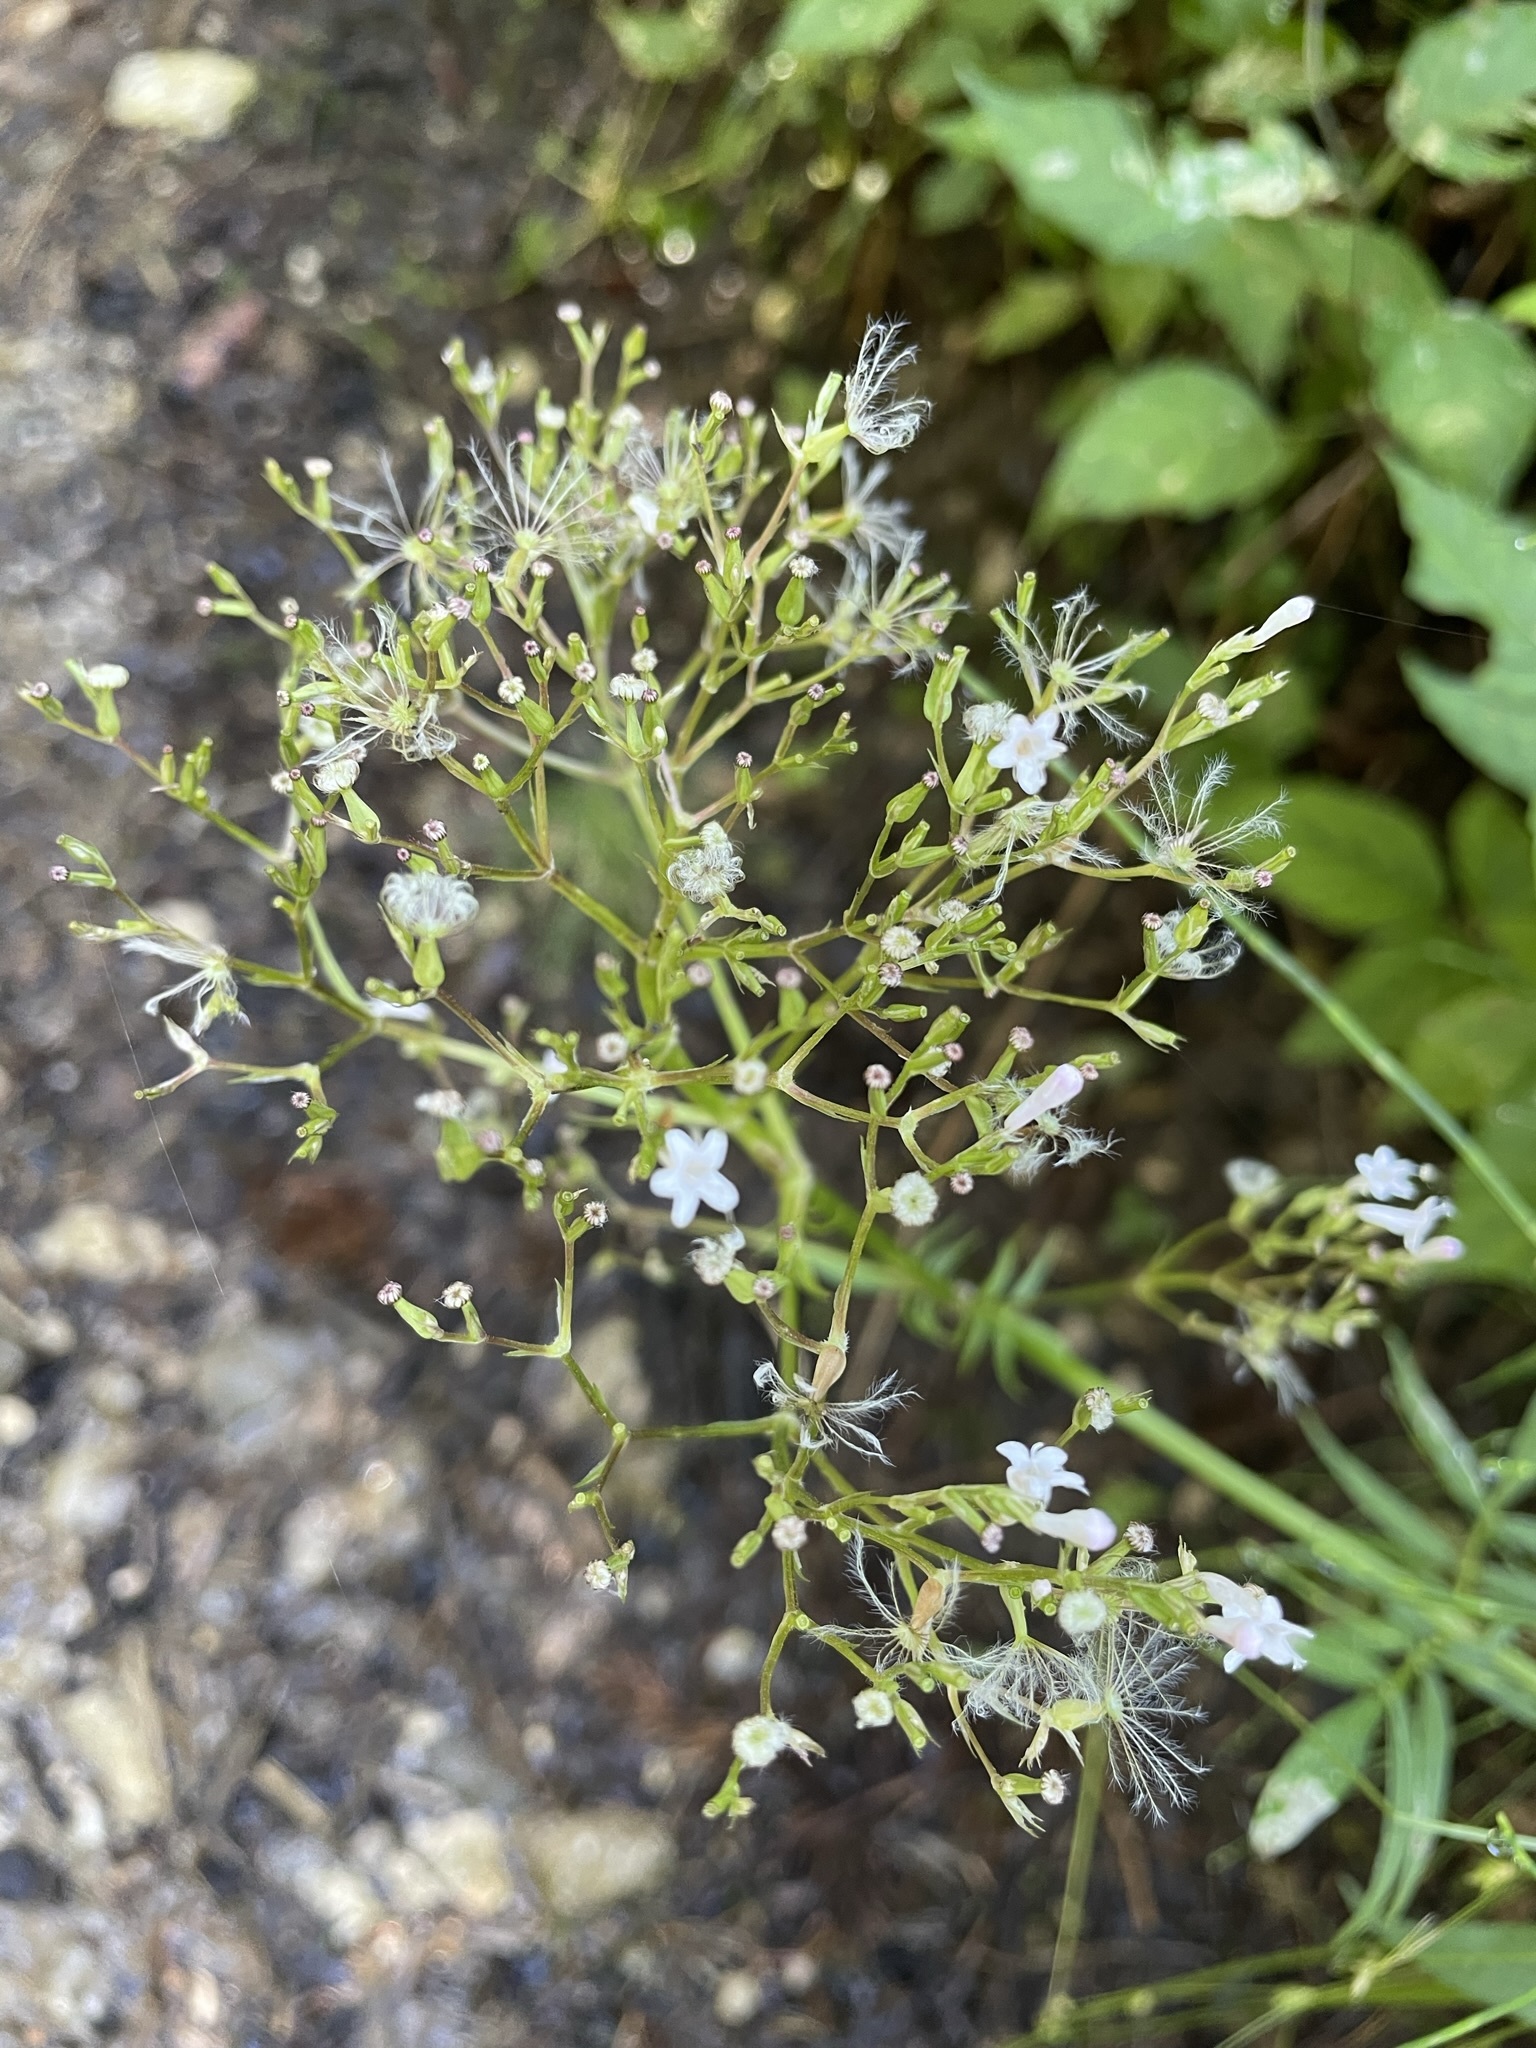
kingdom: Plantae
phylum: Tracheophyta
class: Magnoliopsida
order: Dipsacales
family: Caprifoliaceae
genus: Valeriana
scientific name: Valeriana officinalis
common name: Common valerian
